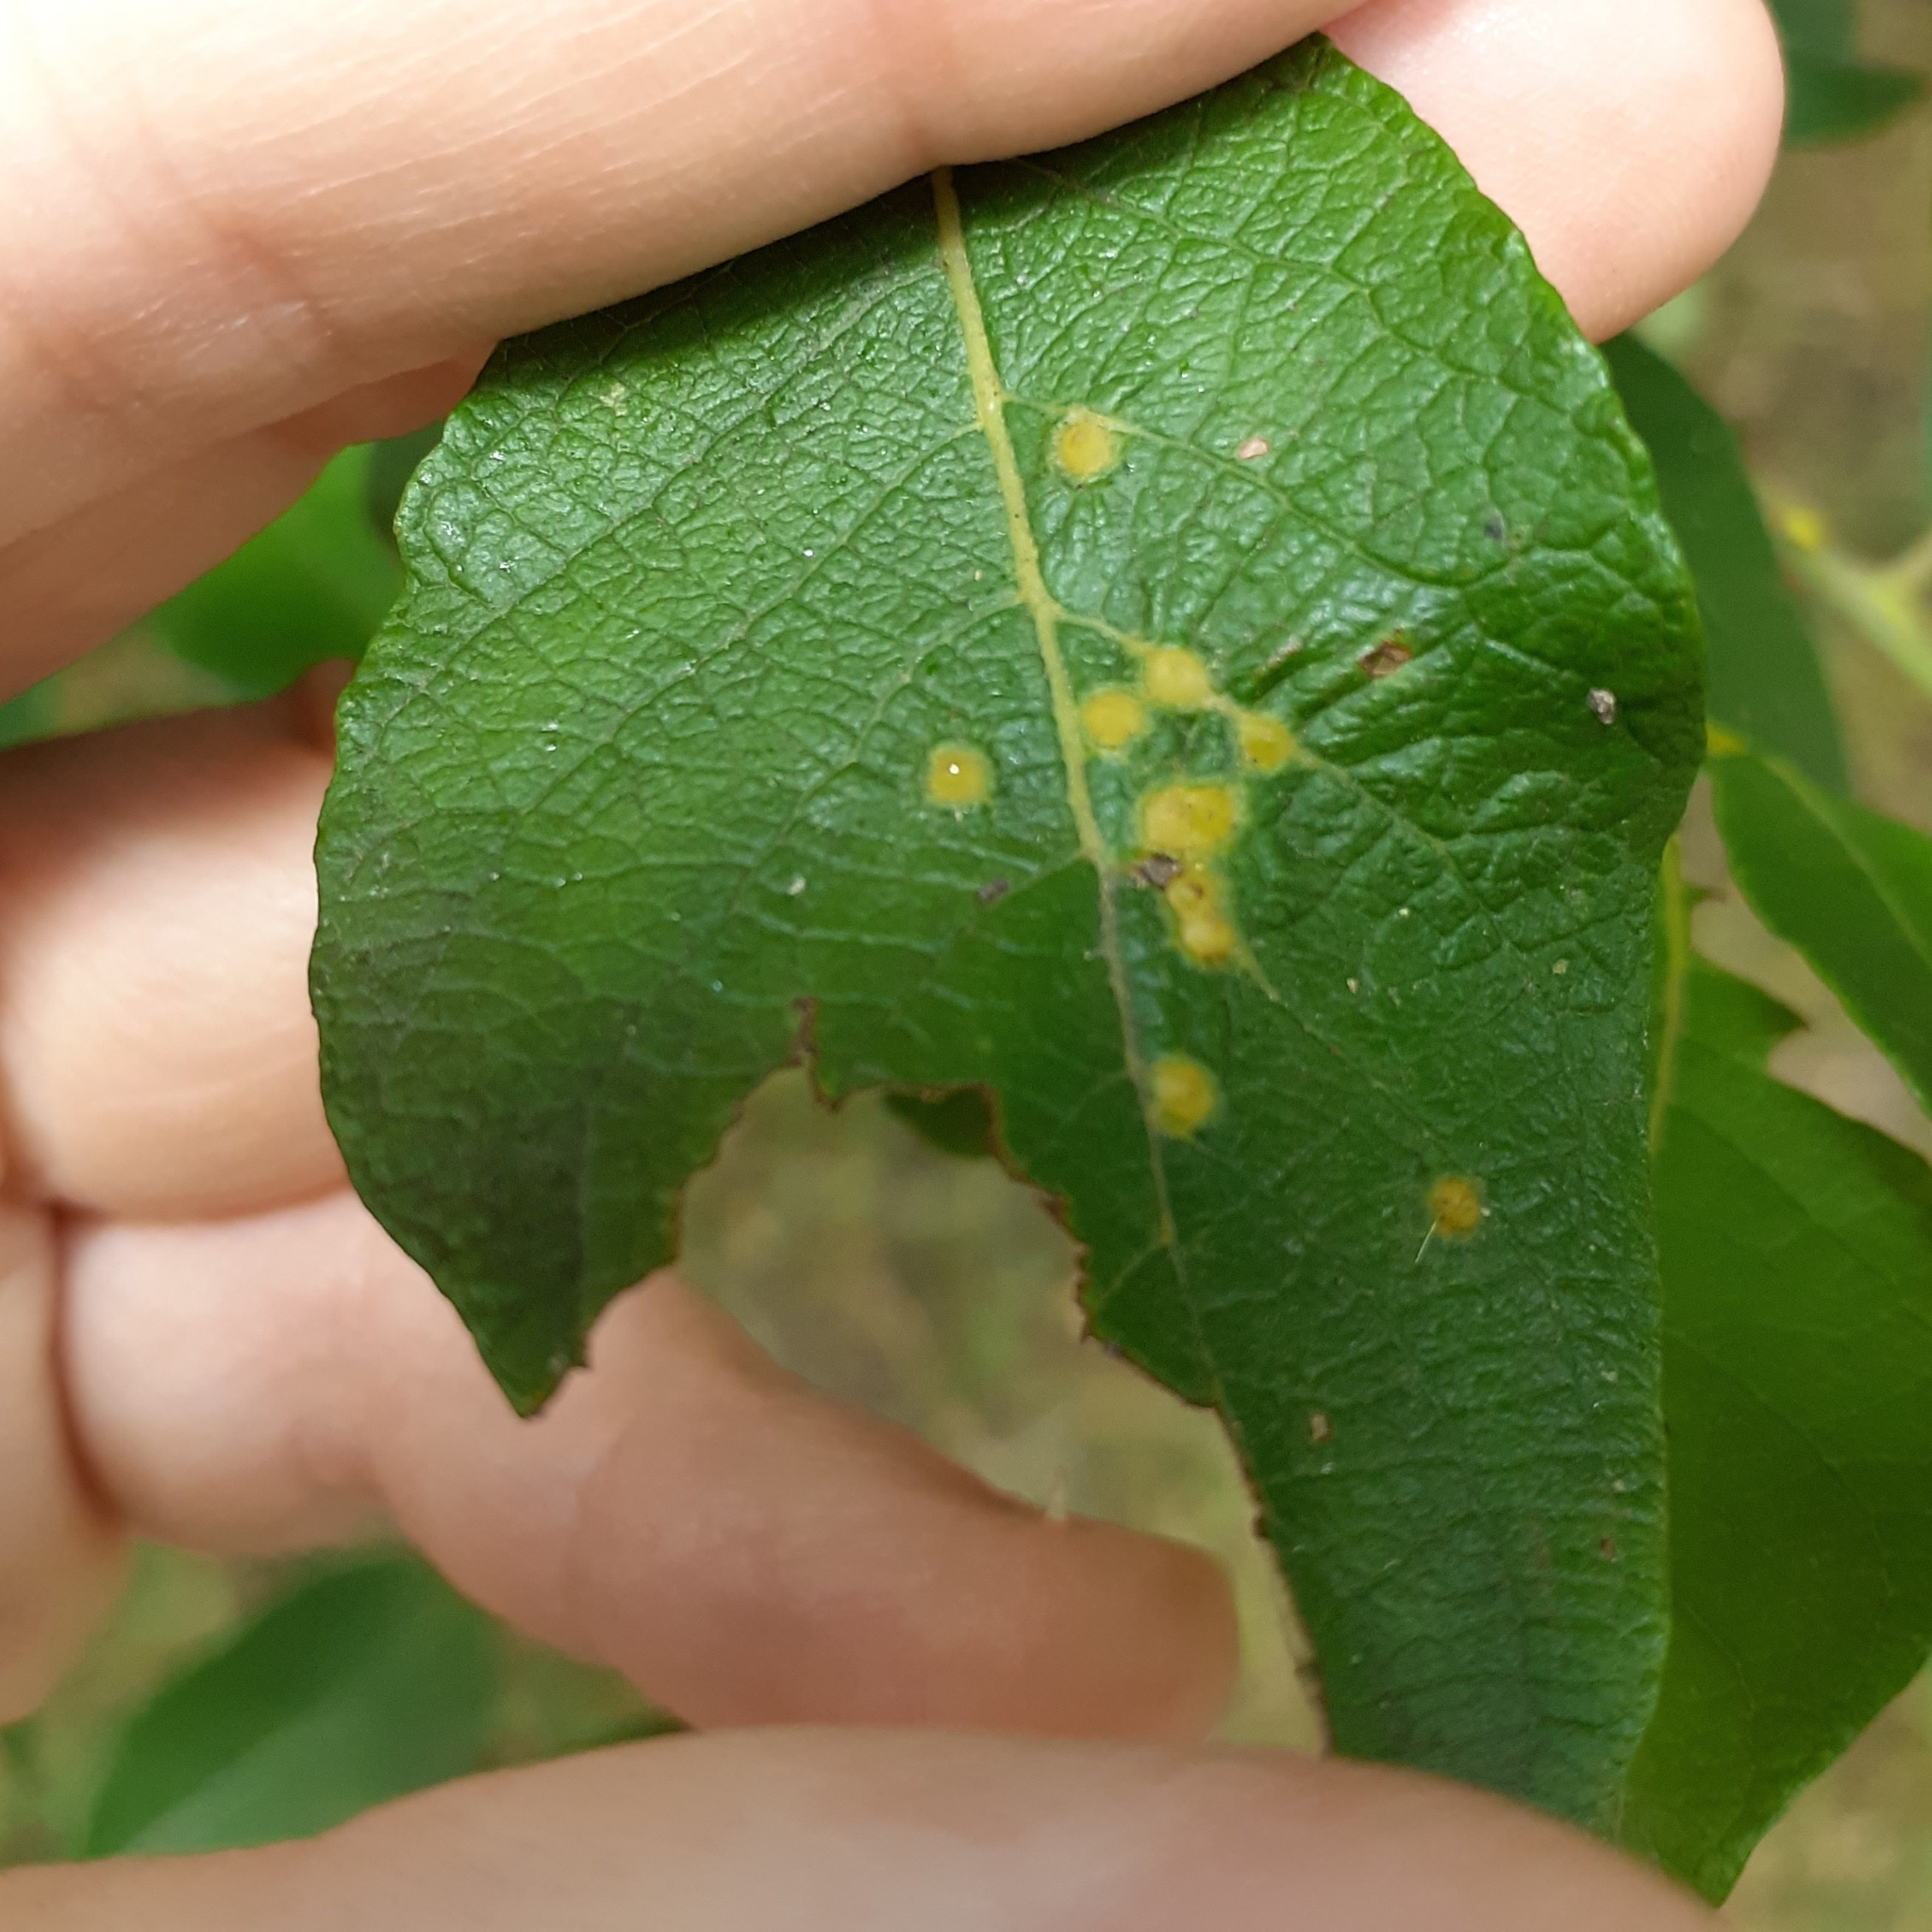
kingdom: Animalia
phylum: Arthropoda
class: Insecta
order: Diptera
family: Cecidomyiidae
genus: Iteomyia
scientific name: Iteomyia capreae
